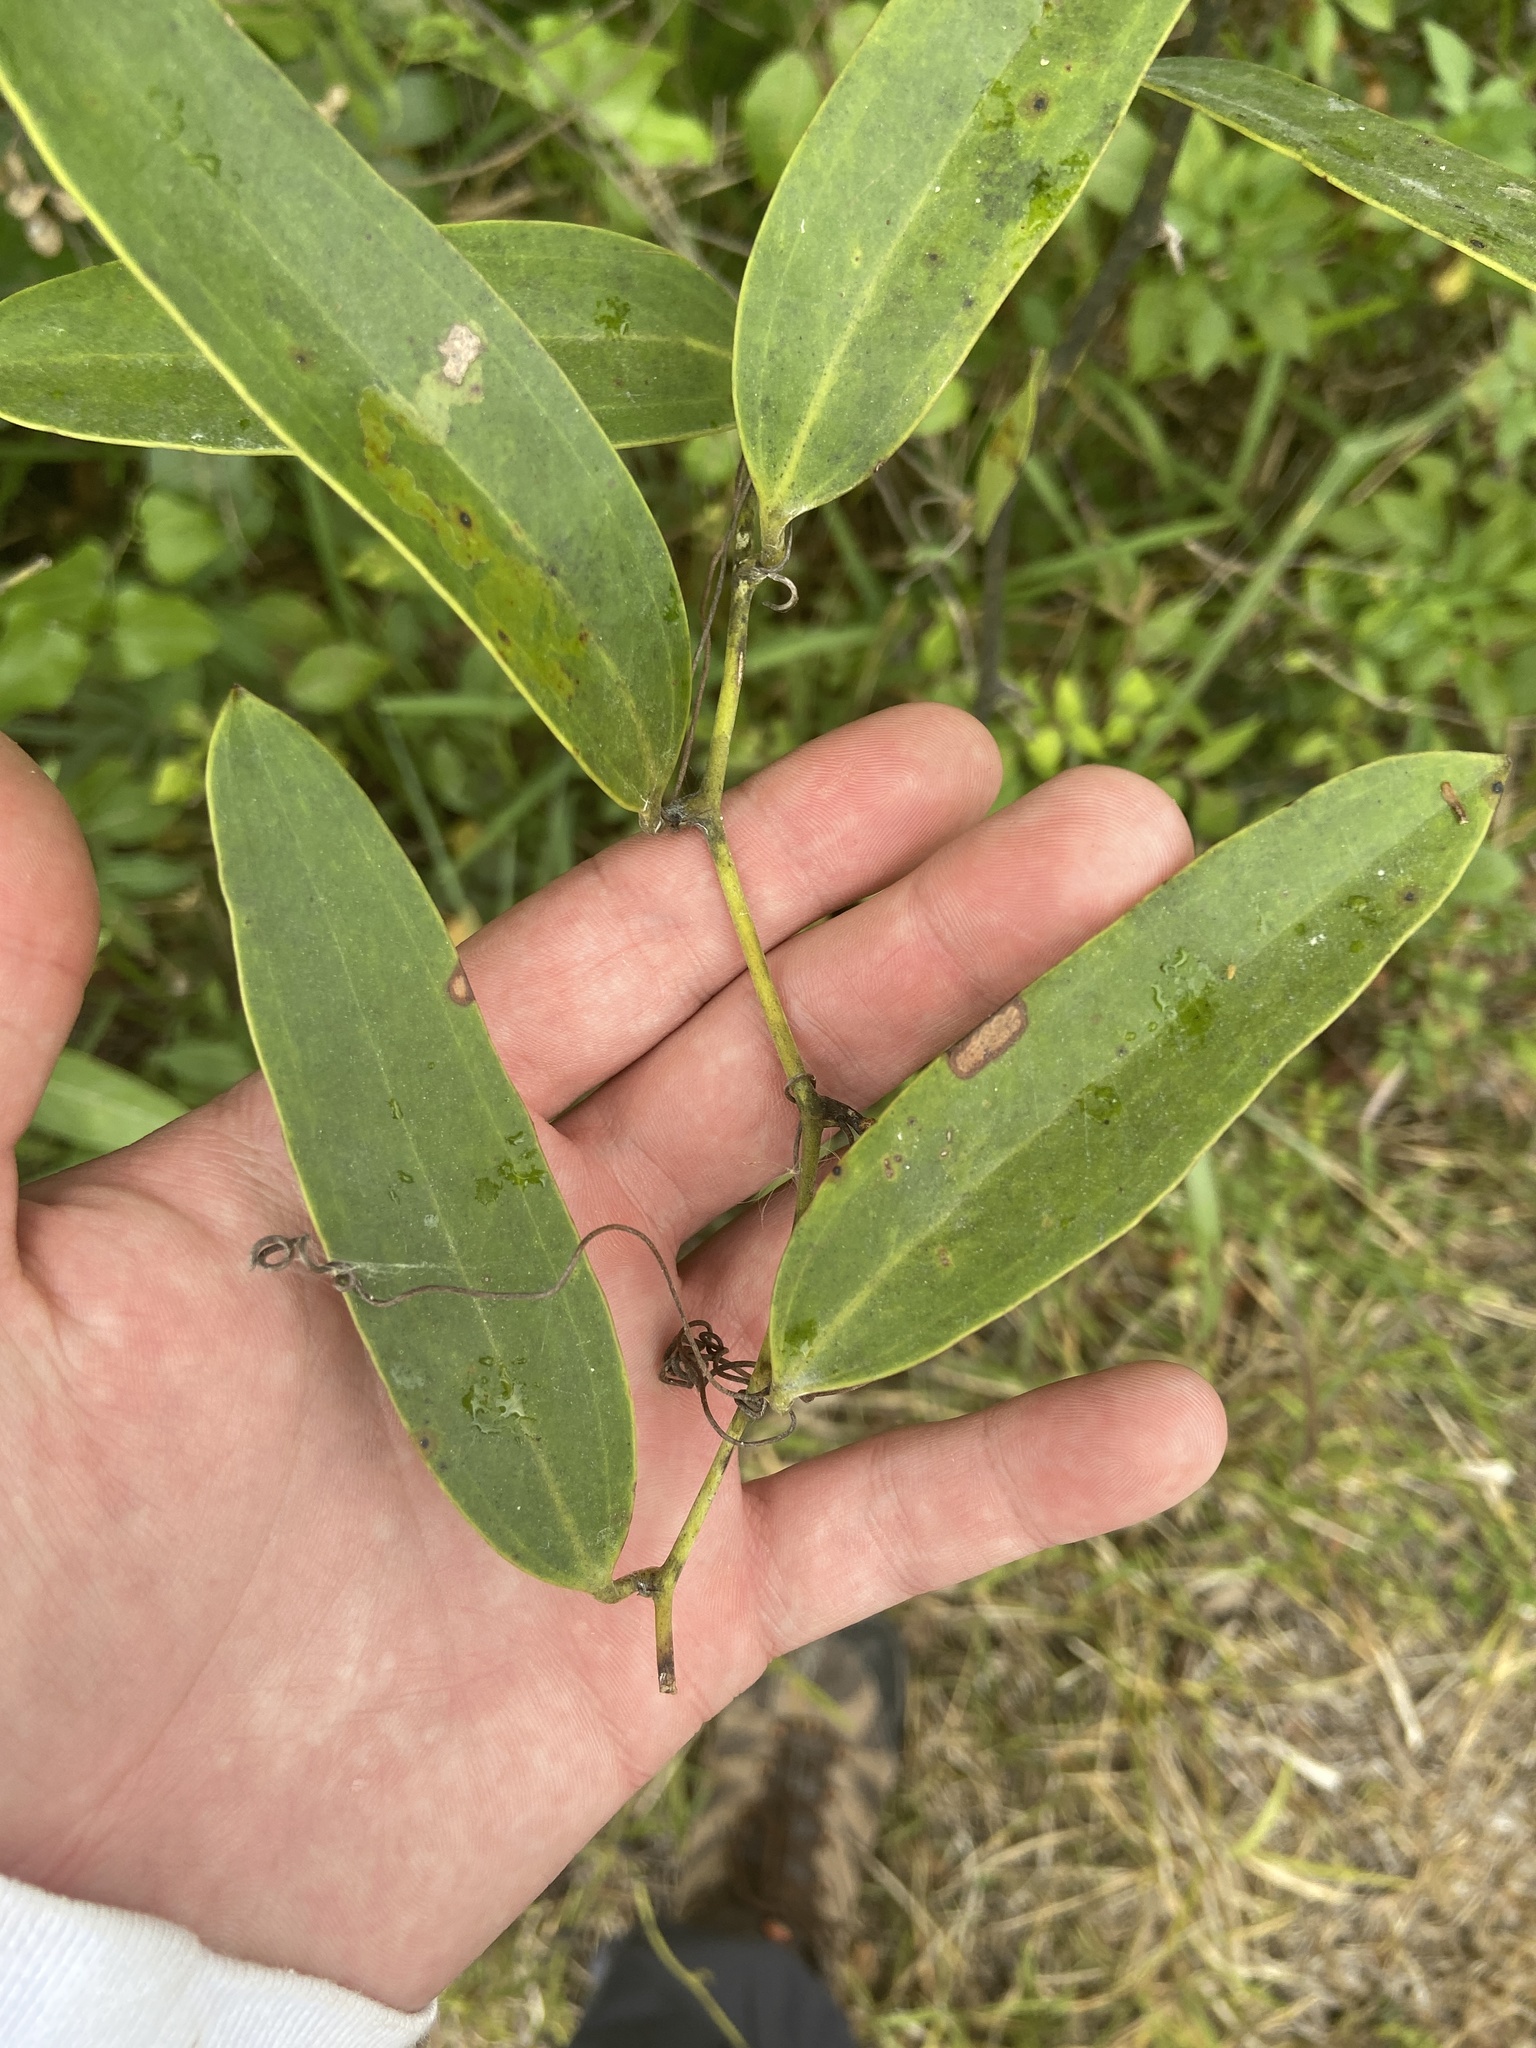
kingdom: Plantae
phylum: Tracheophyta
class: Liliopsida
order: Liliales
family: Smilacaceae
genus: Smilax
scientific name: Smilax laurifolia
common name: Bamboovine
